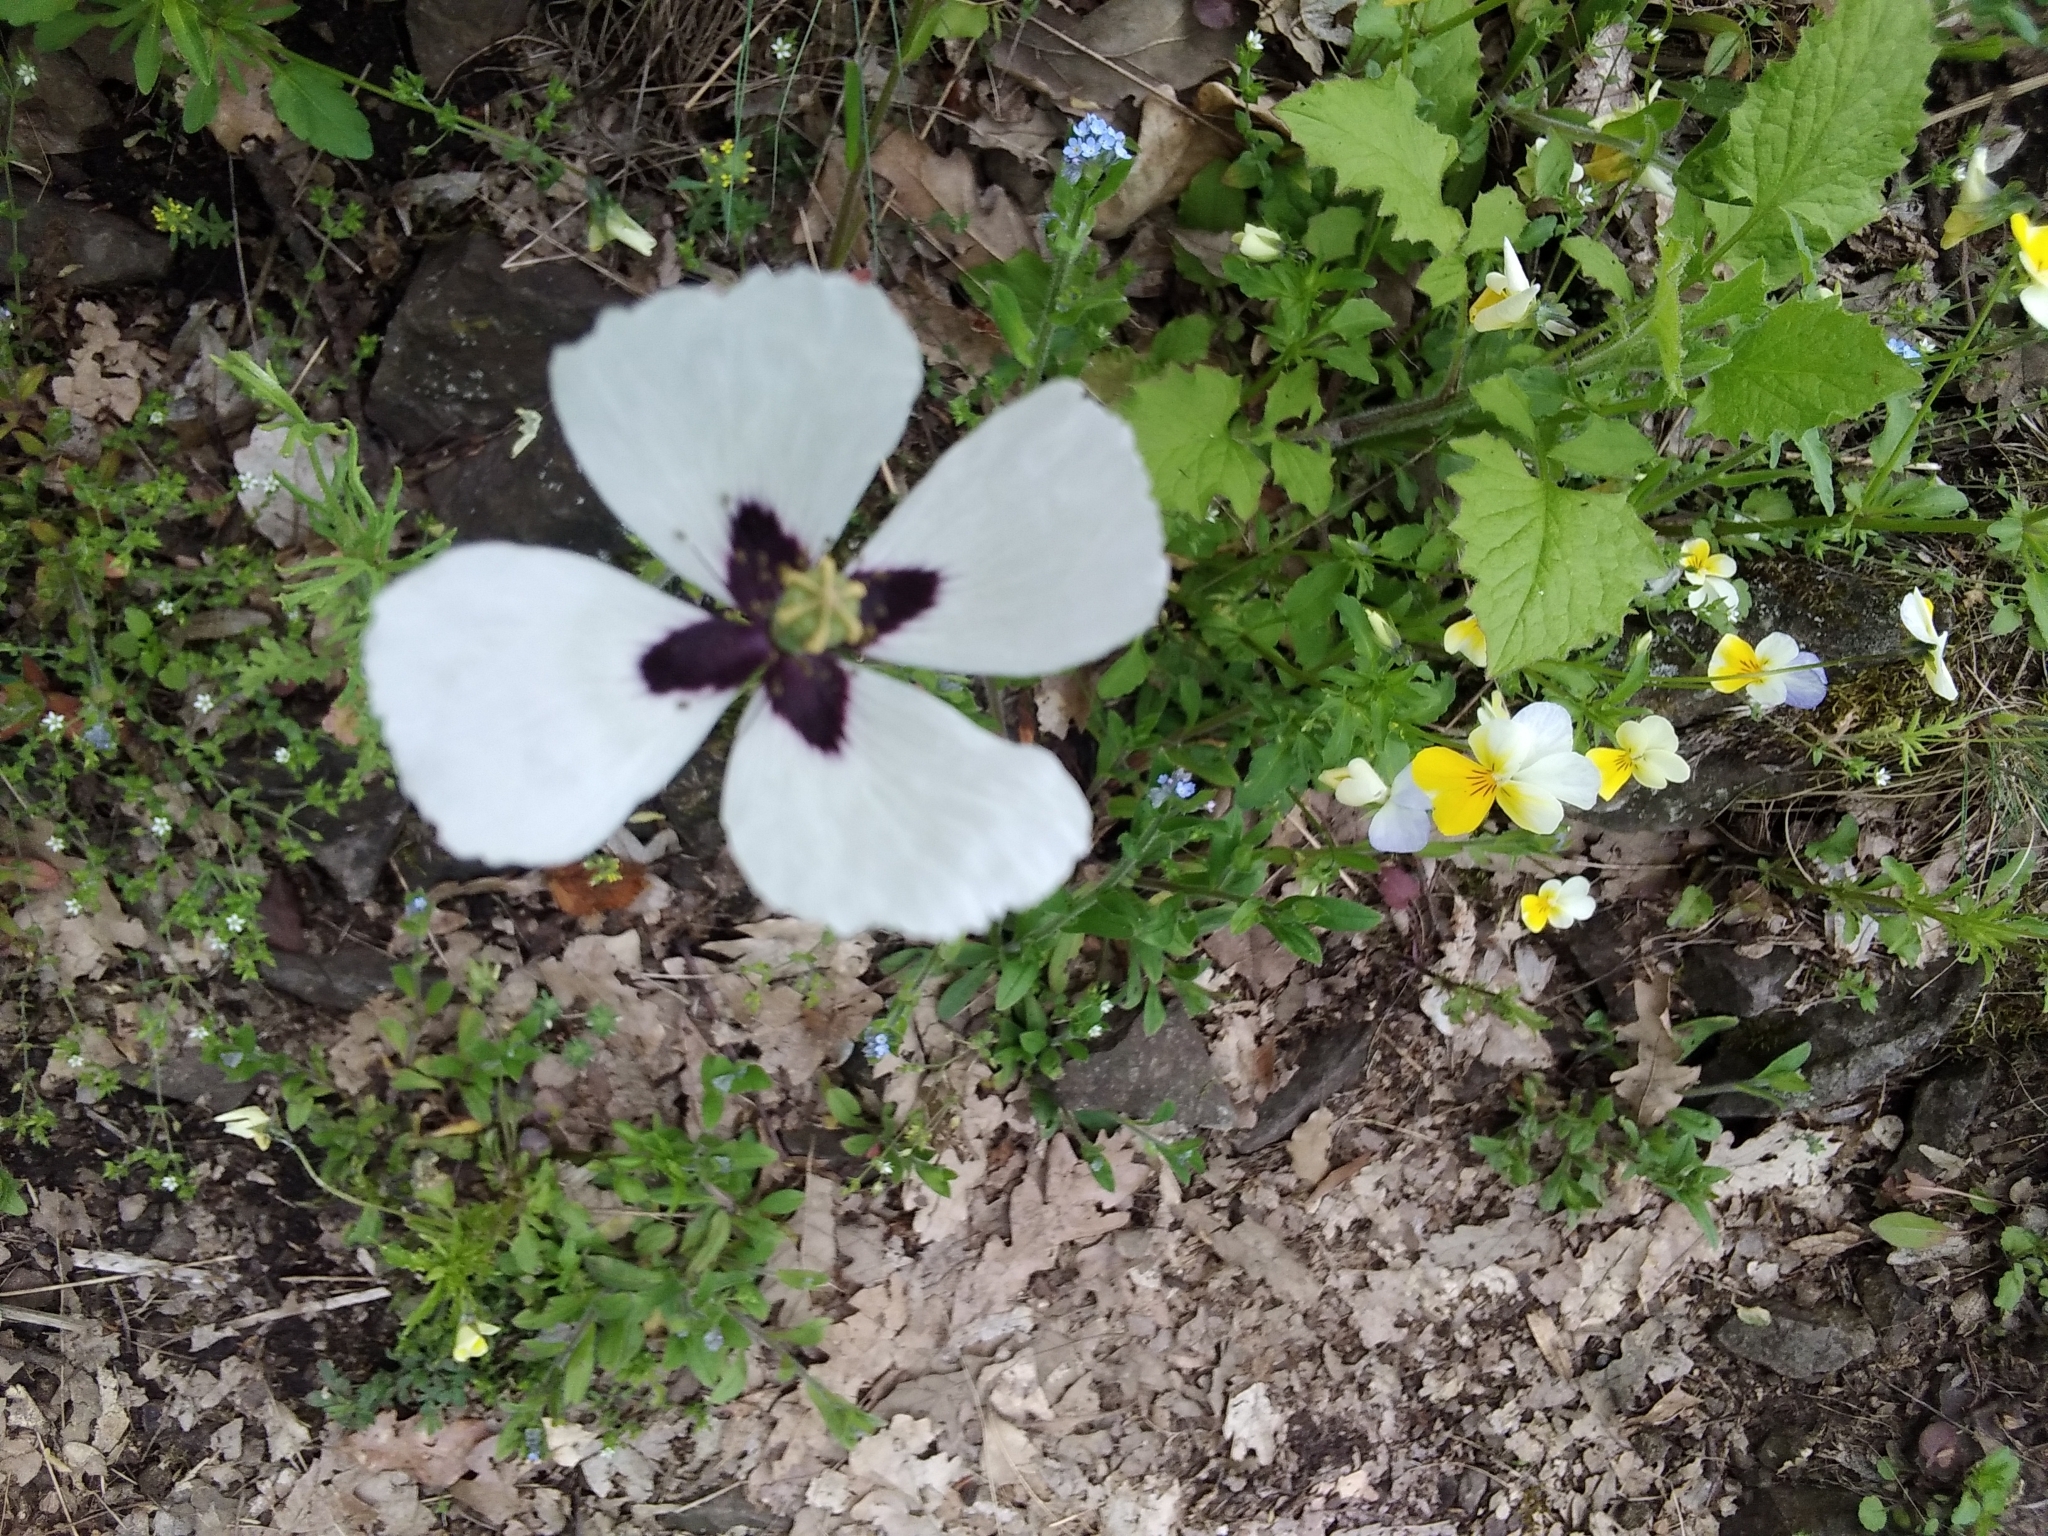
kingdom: Plantae
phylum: Tracheophyta
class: Magnoliopsida
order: Ranunculales
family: Papaveraceae
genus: Papaver
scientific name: Papaver albiflorum
